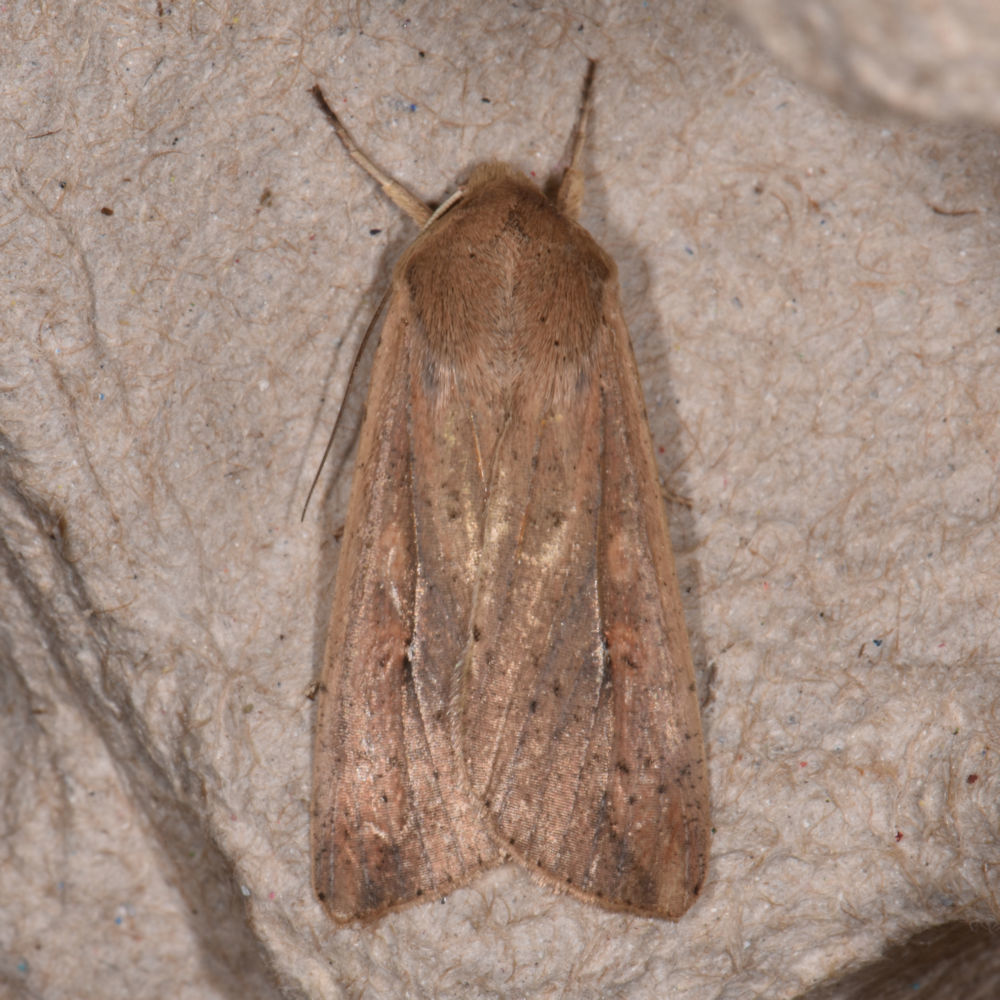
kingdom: Animalia
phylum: Arthropoda
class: Insecta
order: Lepidoptera
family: Noctuidae
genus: Mythimna
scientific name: Mythimna unipuncta
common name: White-speck
